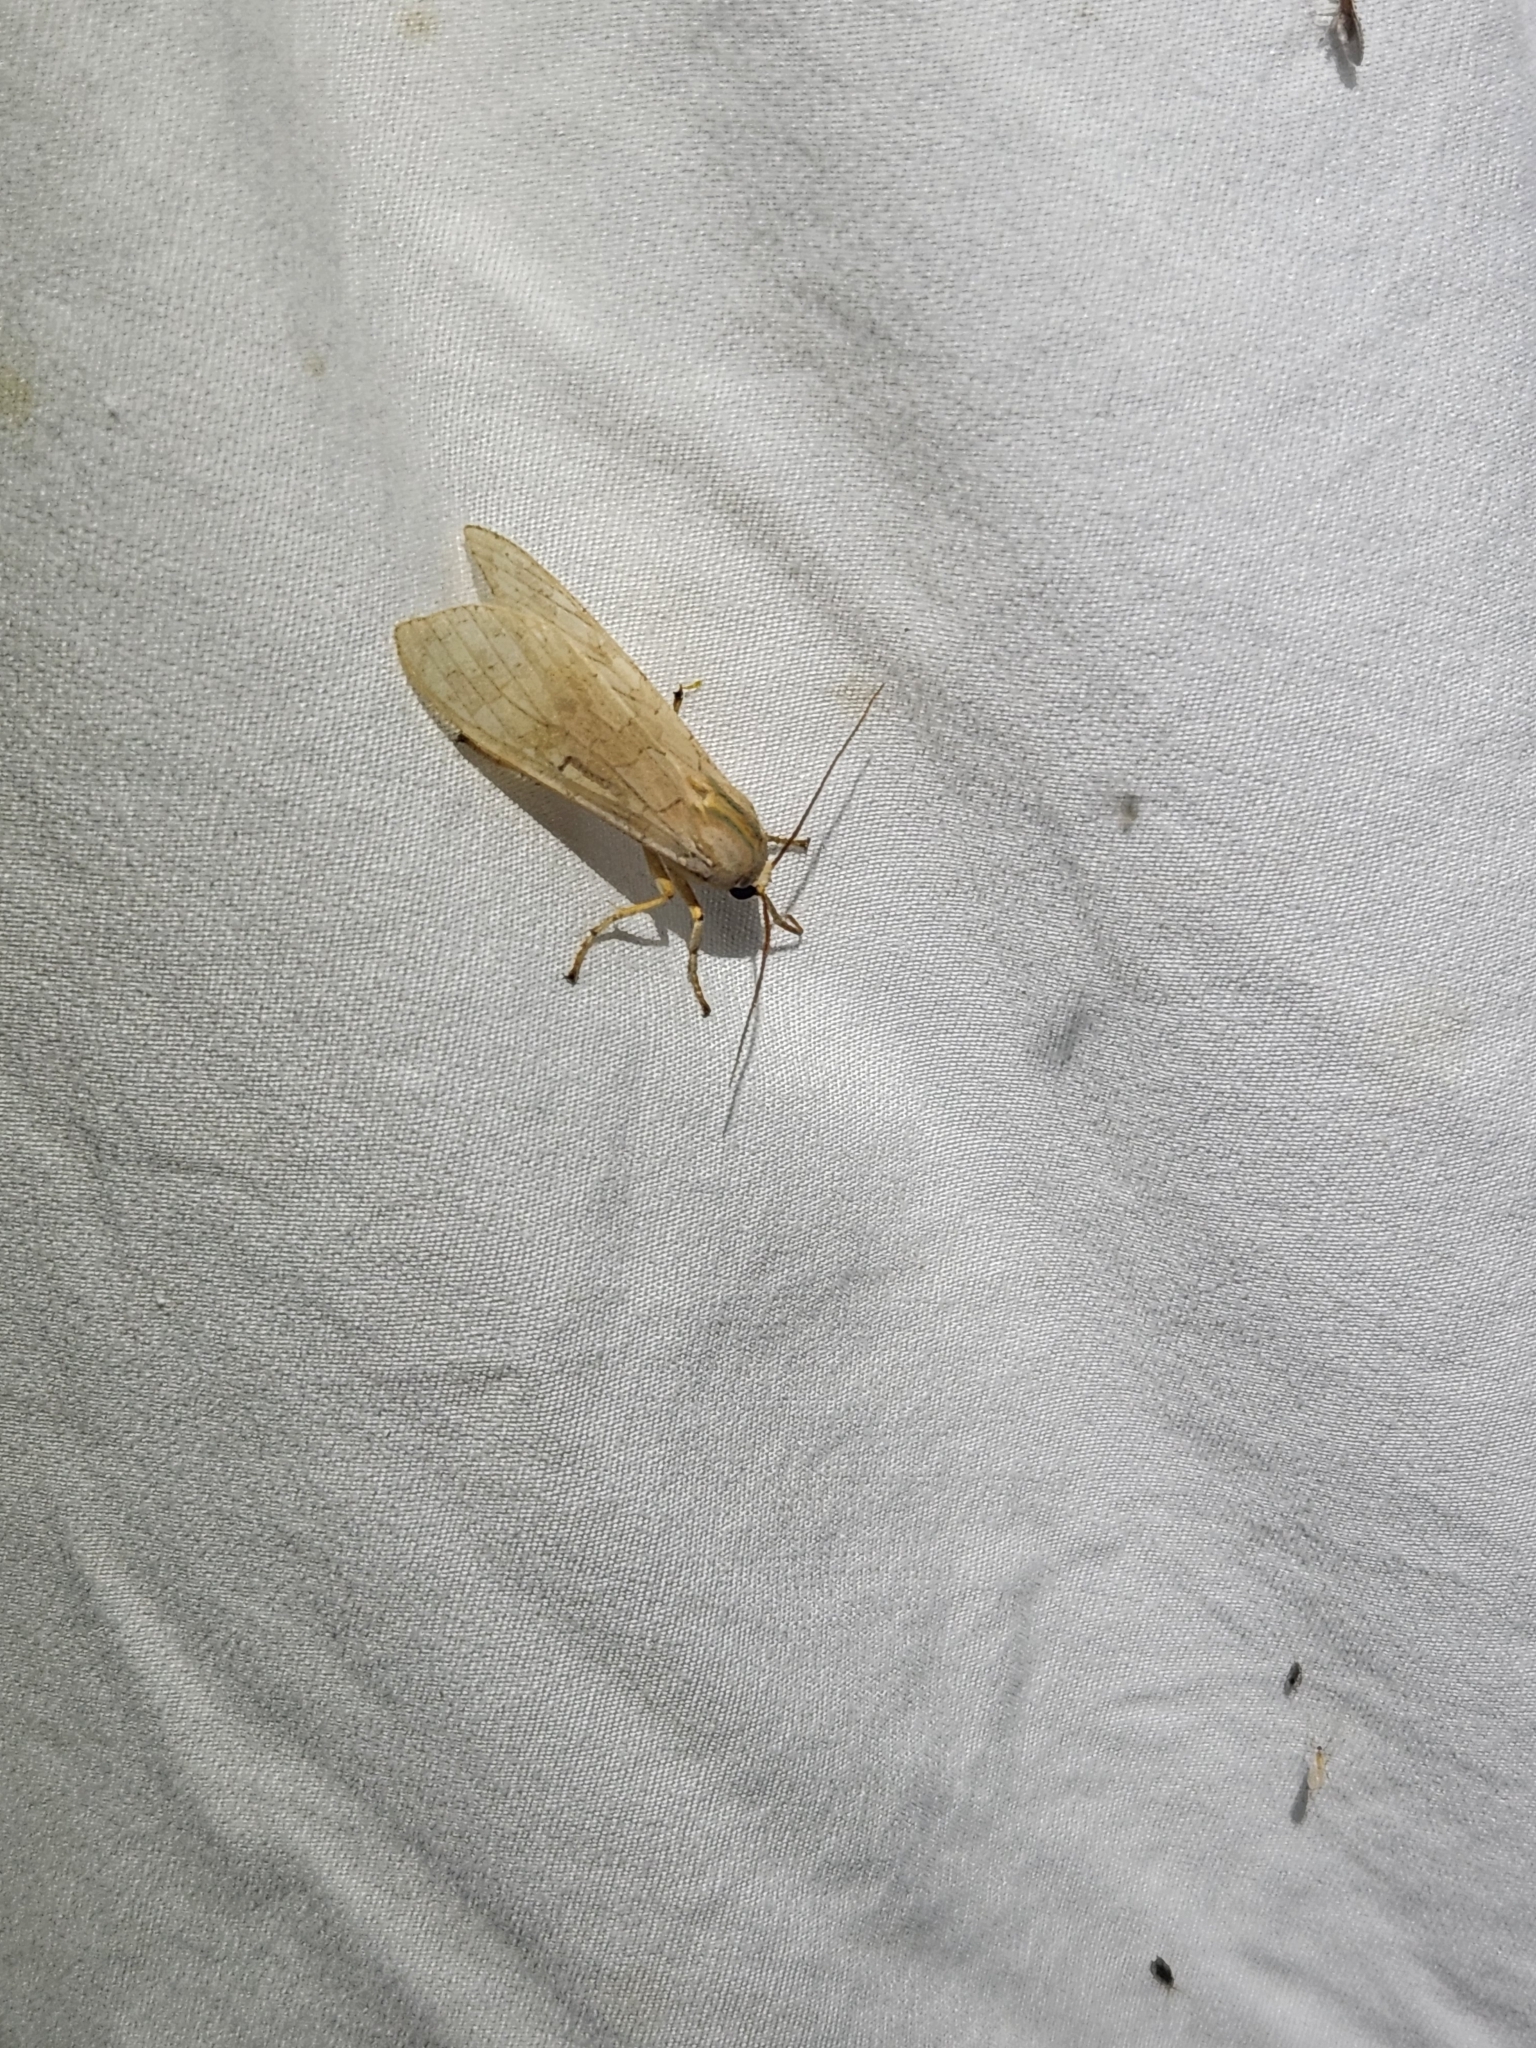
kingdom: Animalia
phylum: Arthropoda
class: Insecta
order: Lepidoptera
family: Erebidae
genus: Halysidota
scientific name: Halysidota
